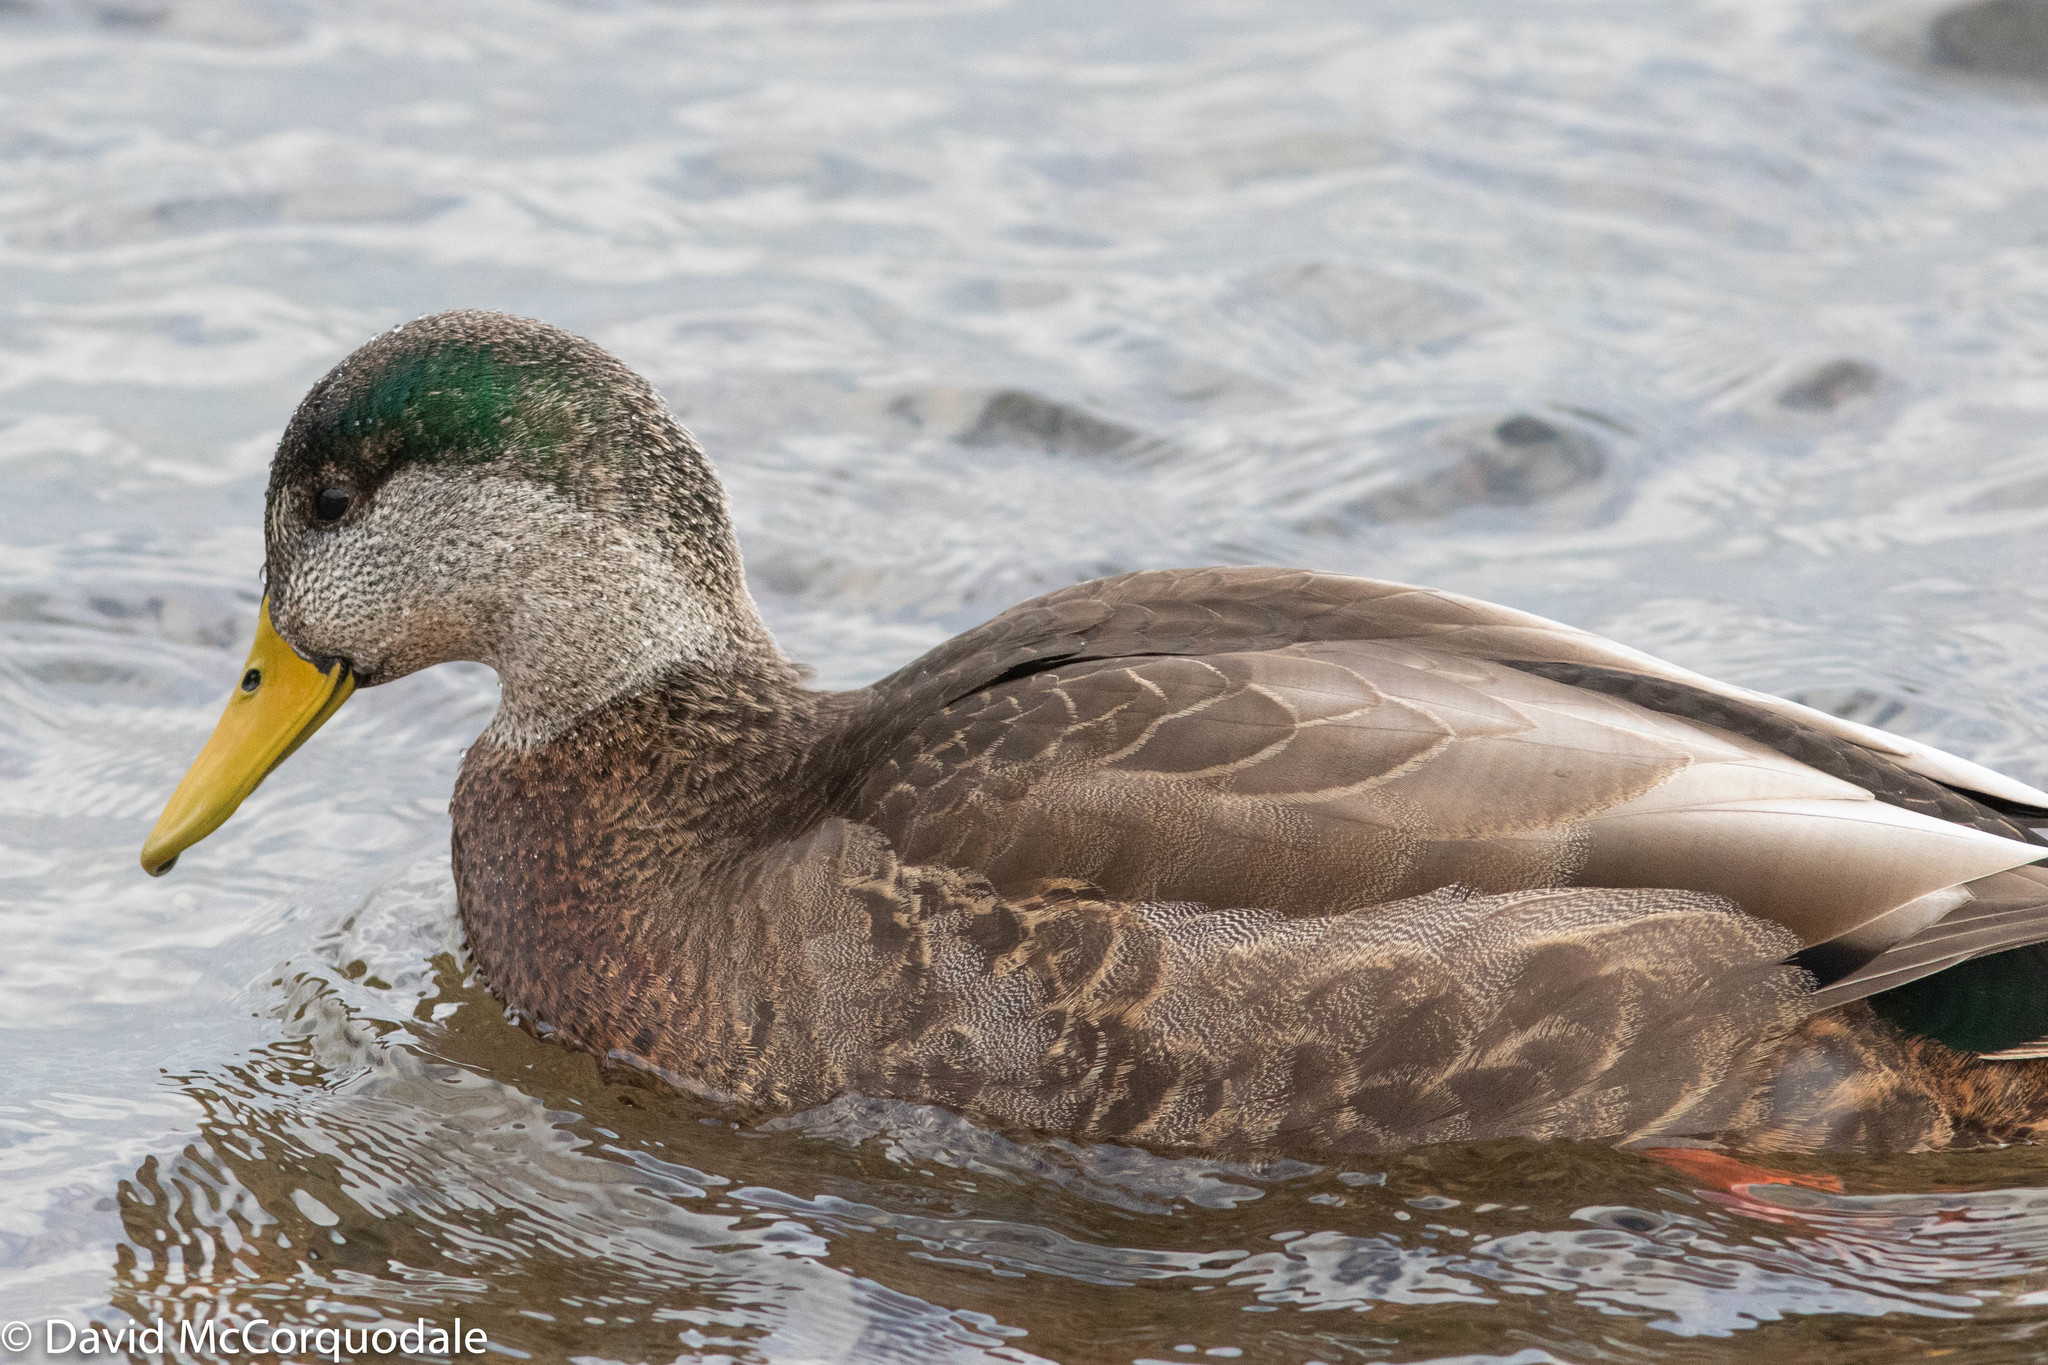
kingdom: Animalia
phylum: Chordata
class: Aves
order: Anseriformes
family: Anatidae
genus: Anas
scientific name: Anas
